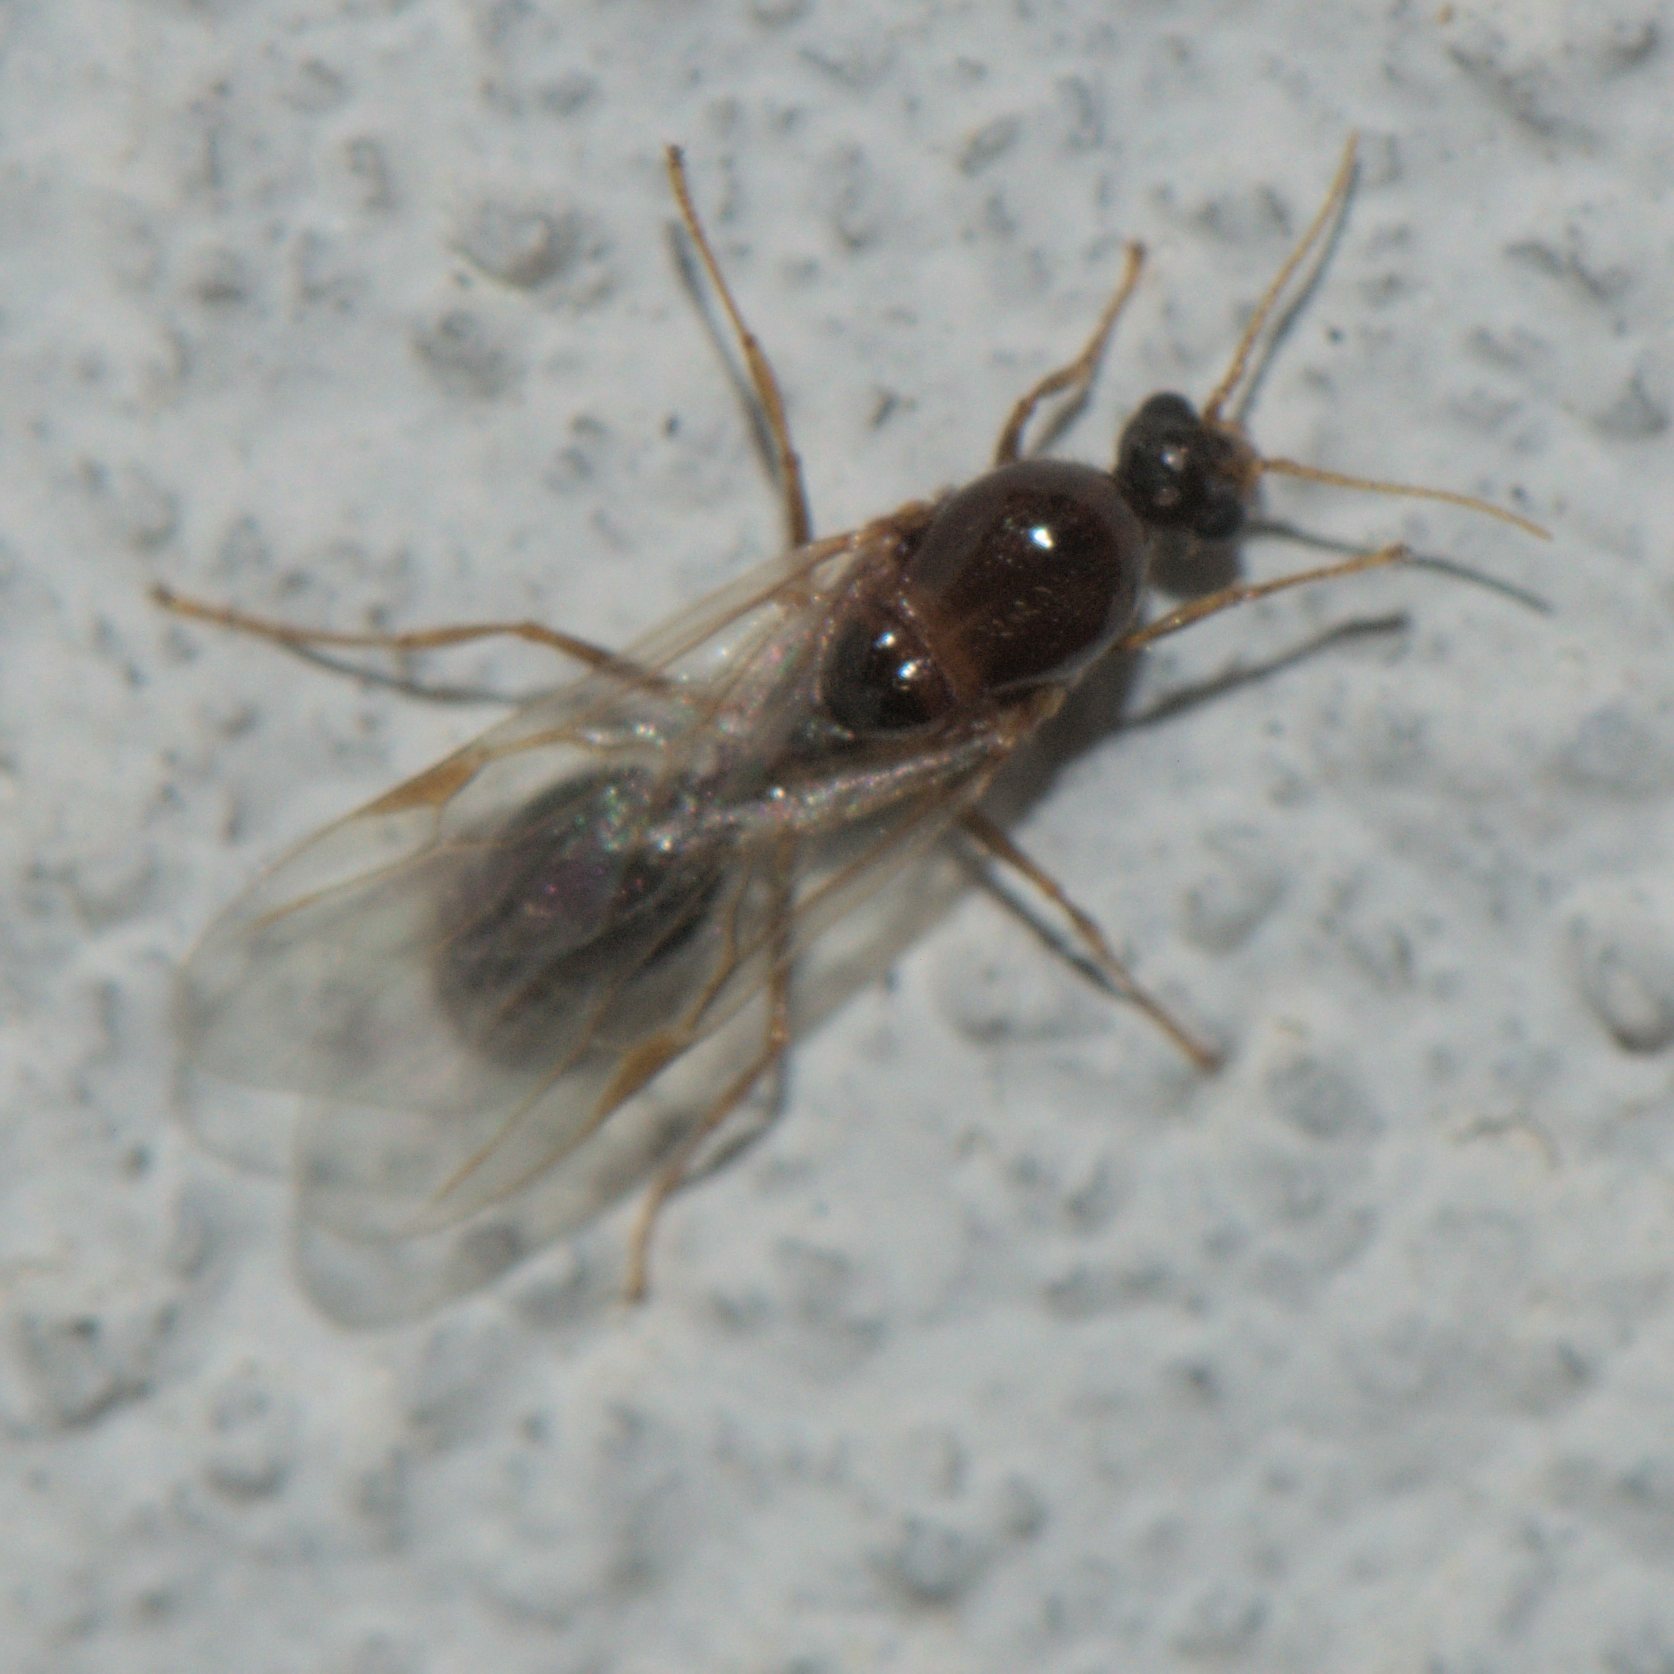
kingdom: Animalia
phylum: Arthropoda
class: Insecta
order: Hymenoptera
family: Formicidae
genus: Solenopsis
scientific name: Solenopsis geminata
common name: Tropical fire ant
